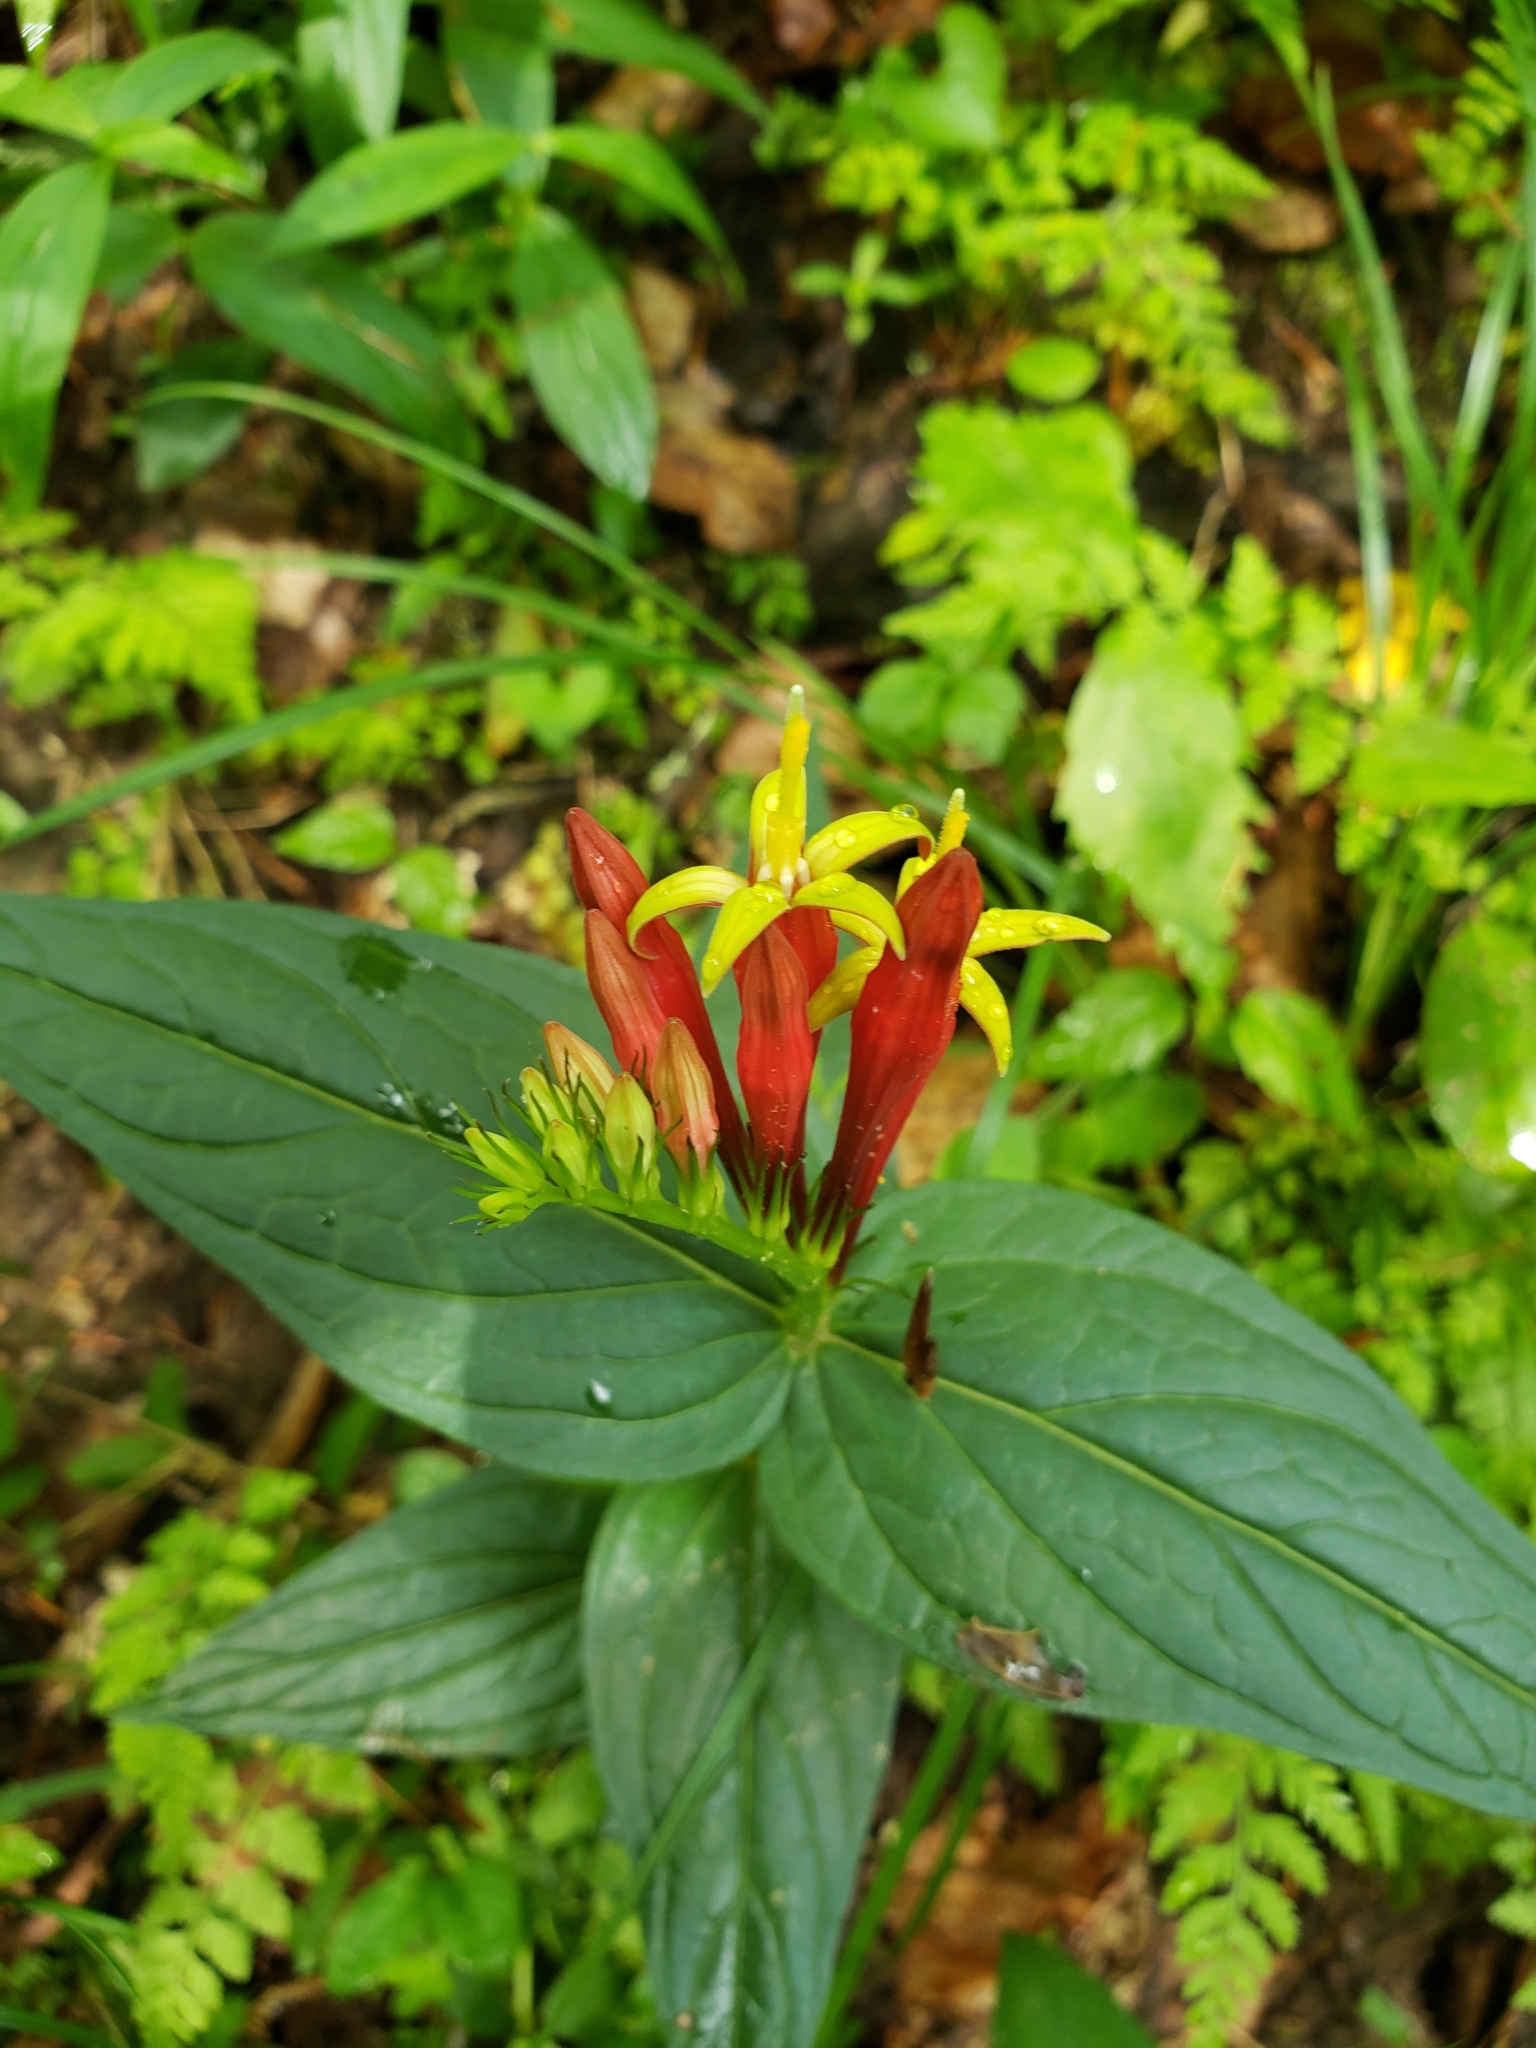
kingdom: Plantae
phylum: Tracheophyta
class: Magnoliopsida
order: Gentianales
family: Loganiaceae
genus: Spigelia
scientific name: Spigelia marilandica
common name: Indian-pink
